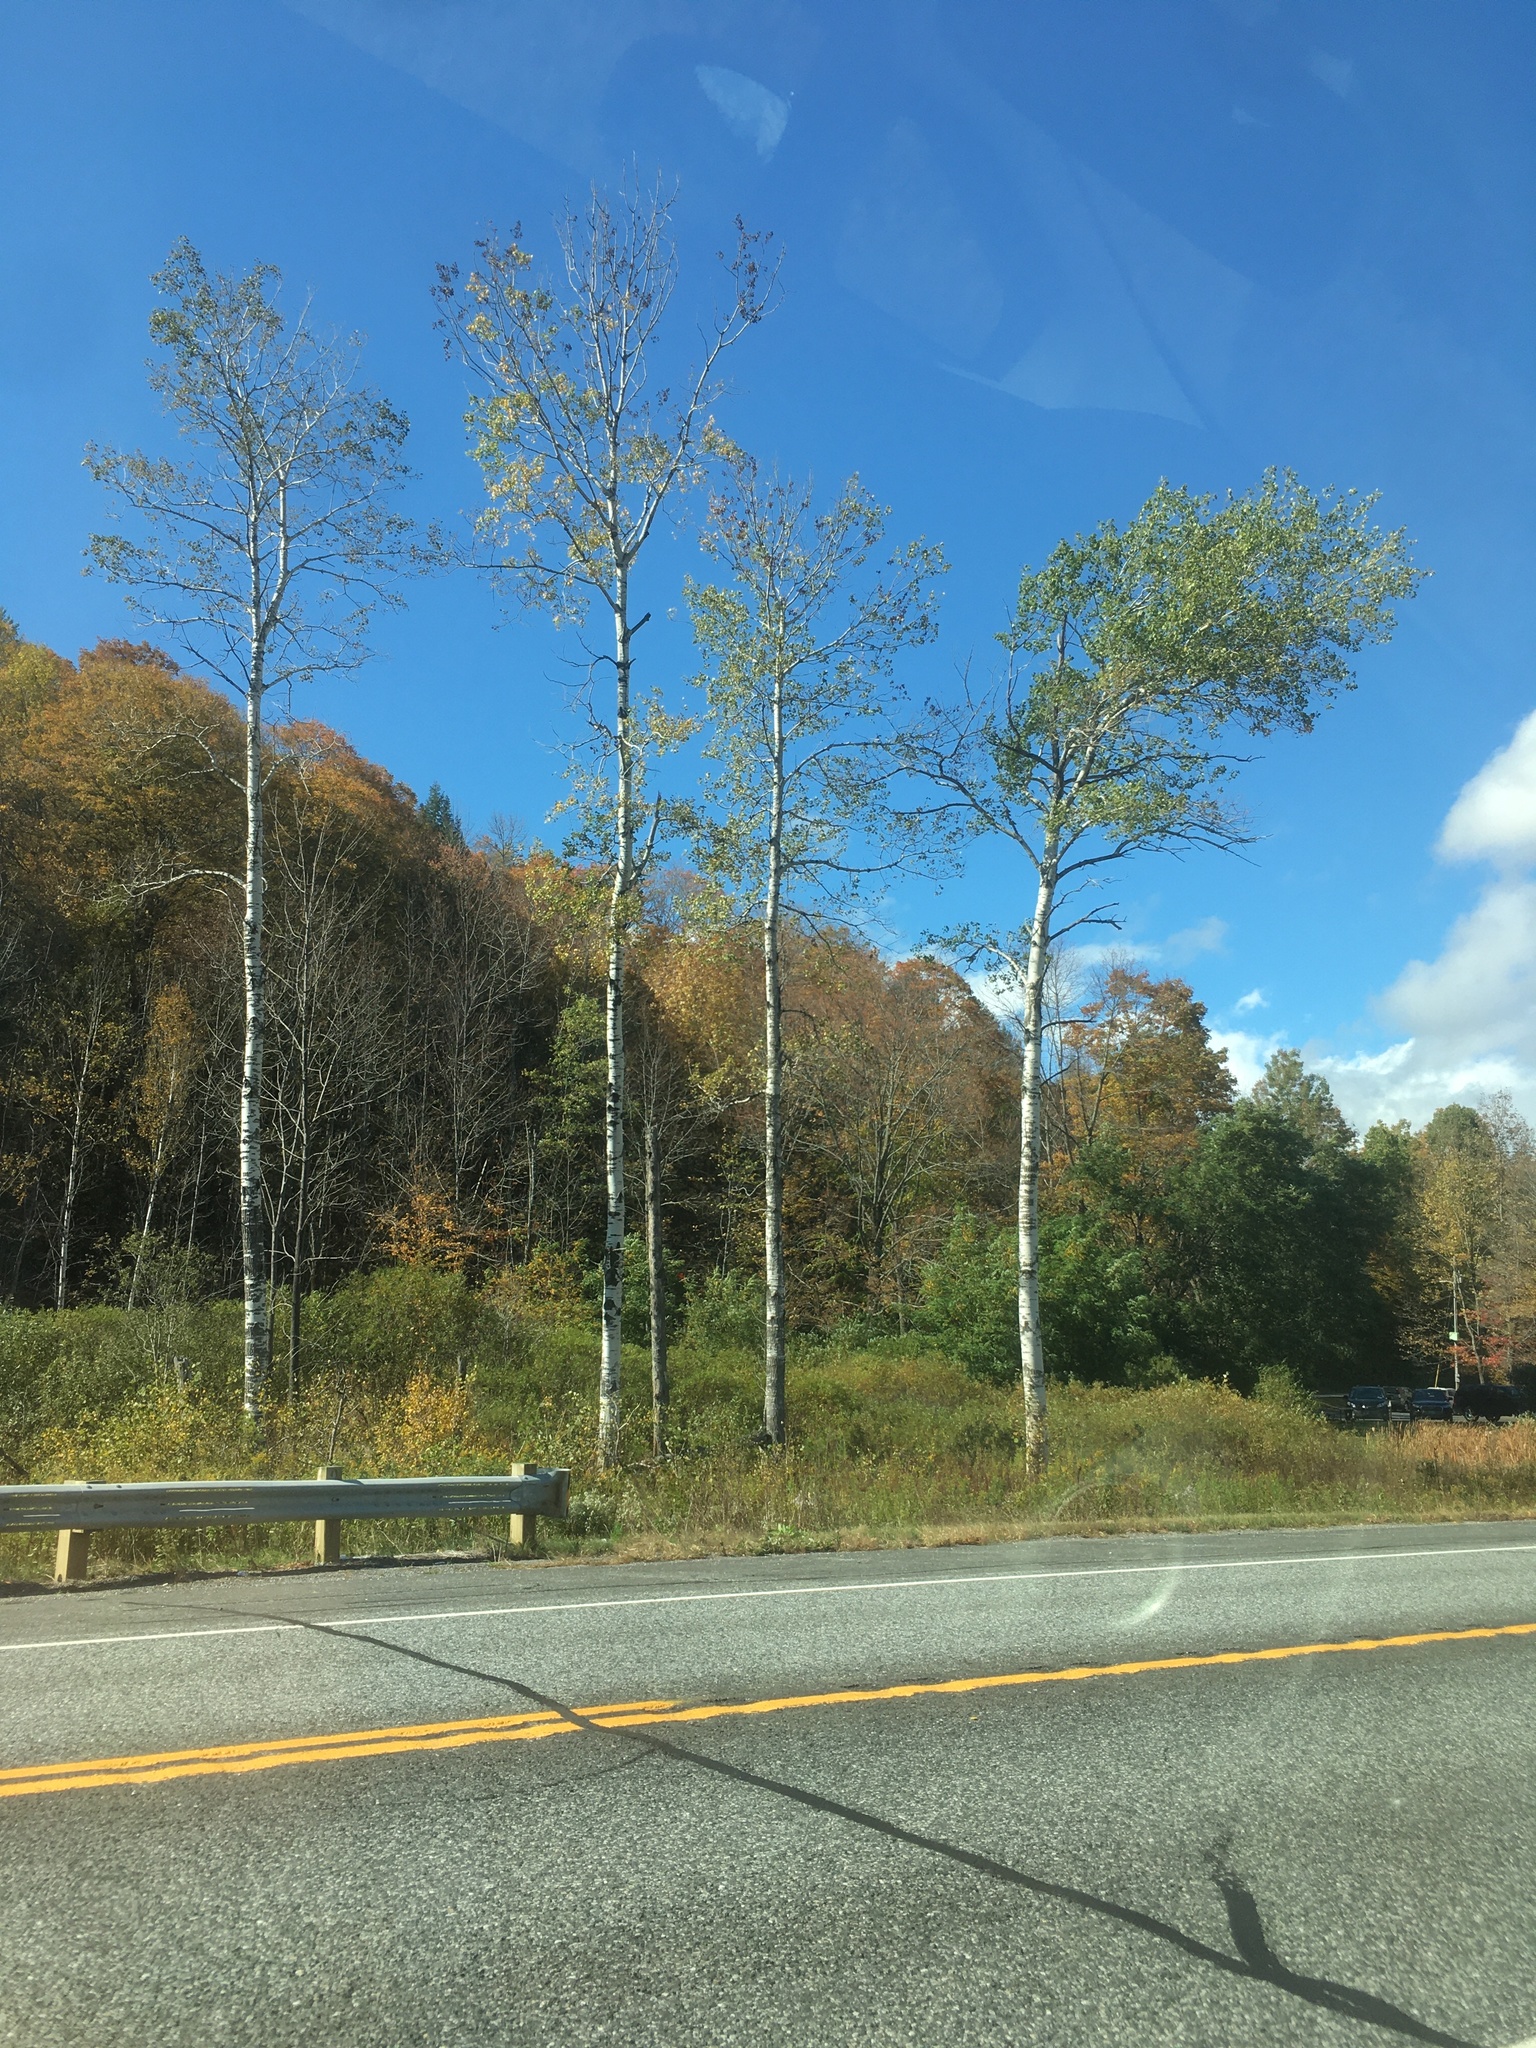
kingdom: Plantae
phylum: Tracheophyta
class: Magnoliopsida
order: Malpighiales
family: Salicaceae
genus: Populus
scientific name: Populus tremuloides
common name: Quaking aspen
